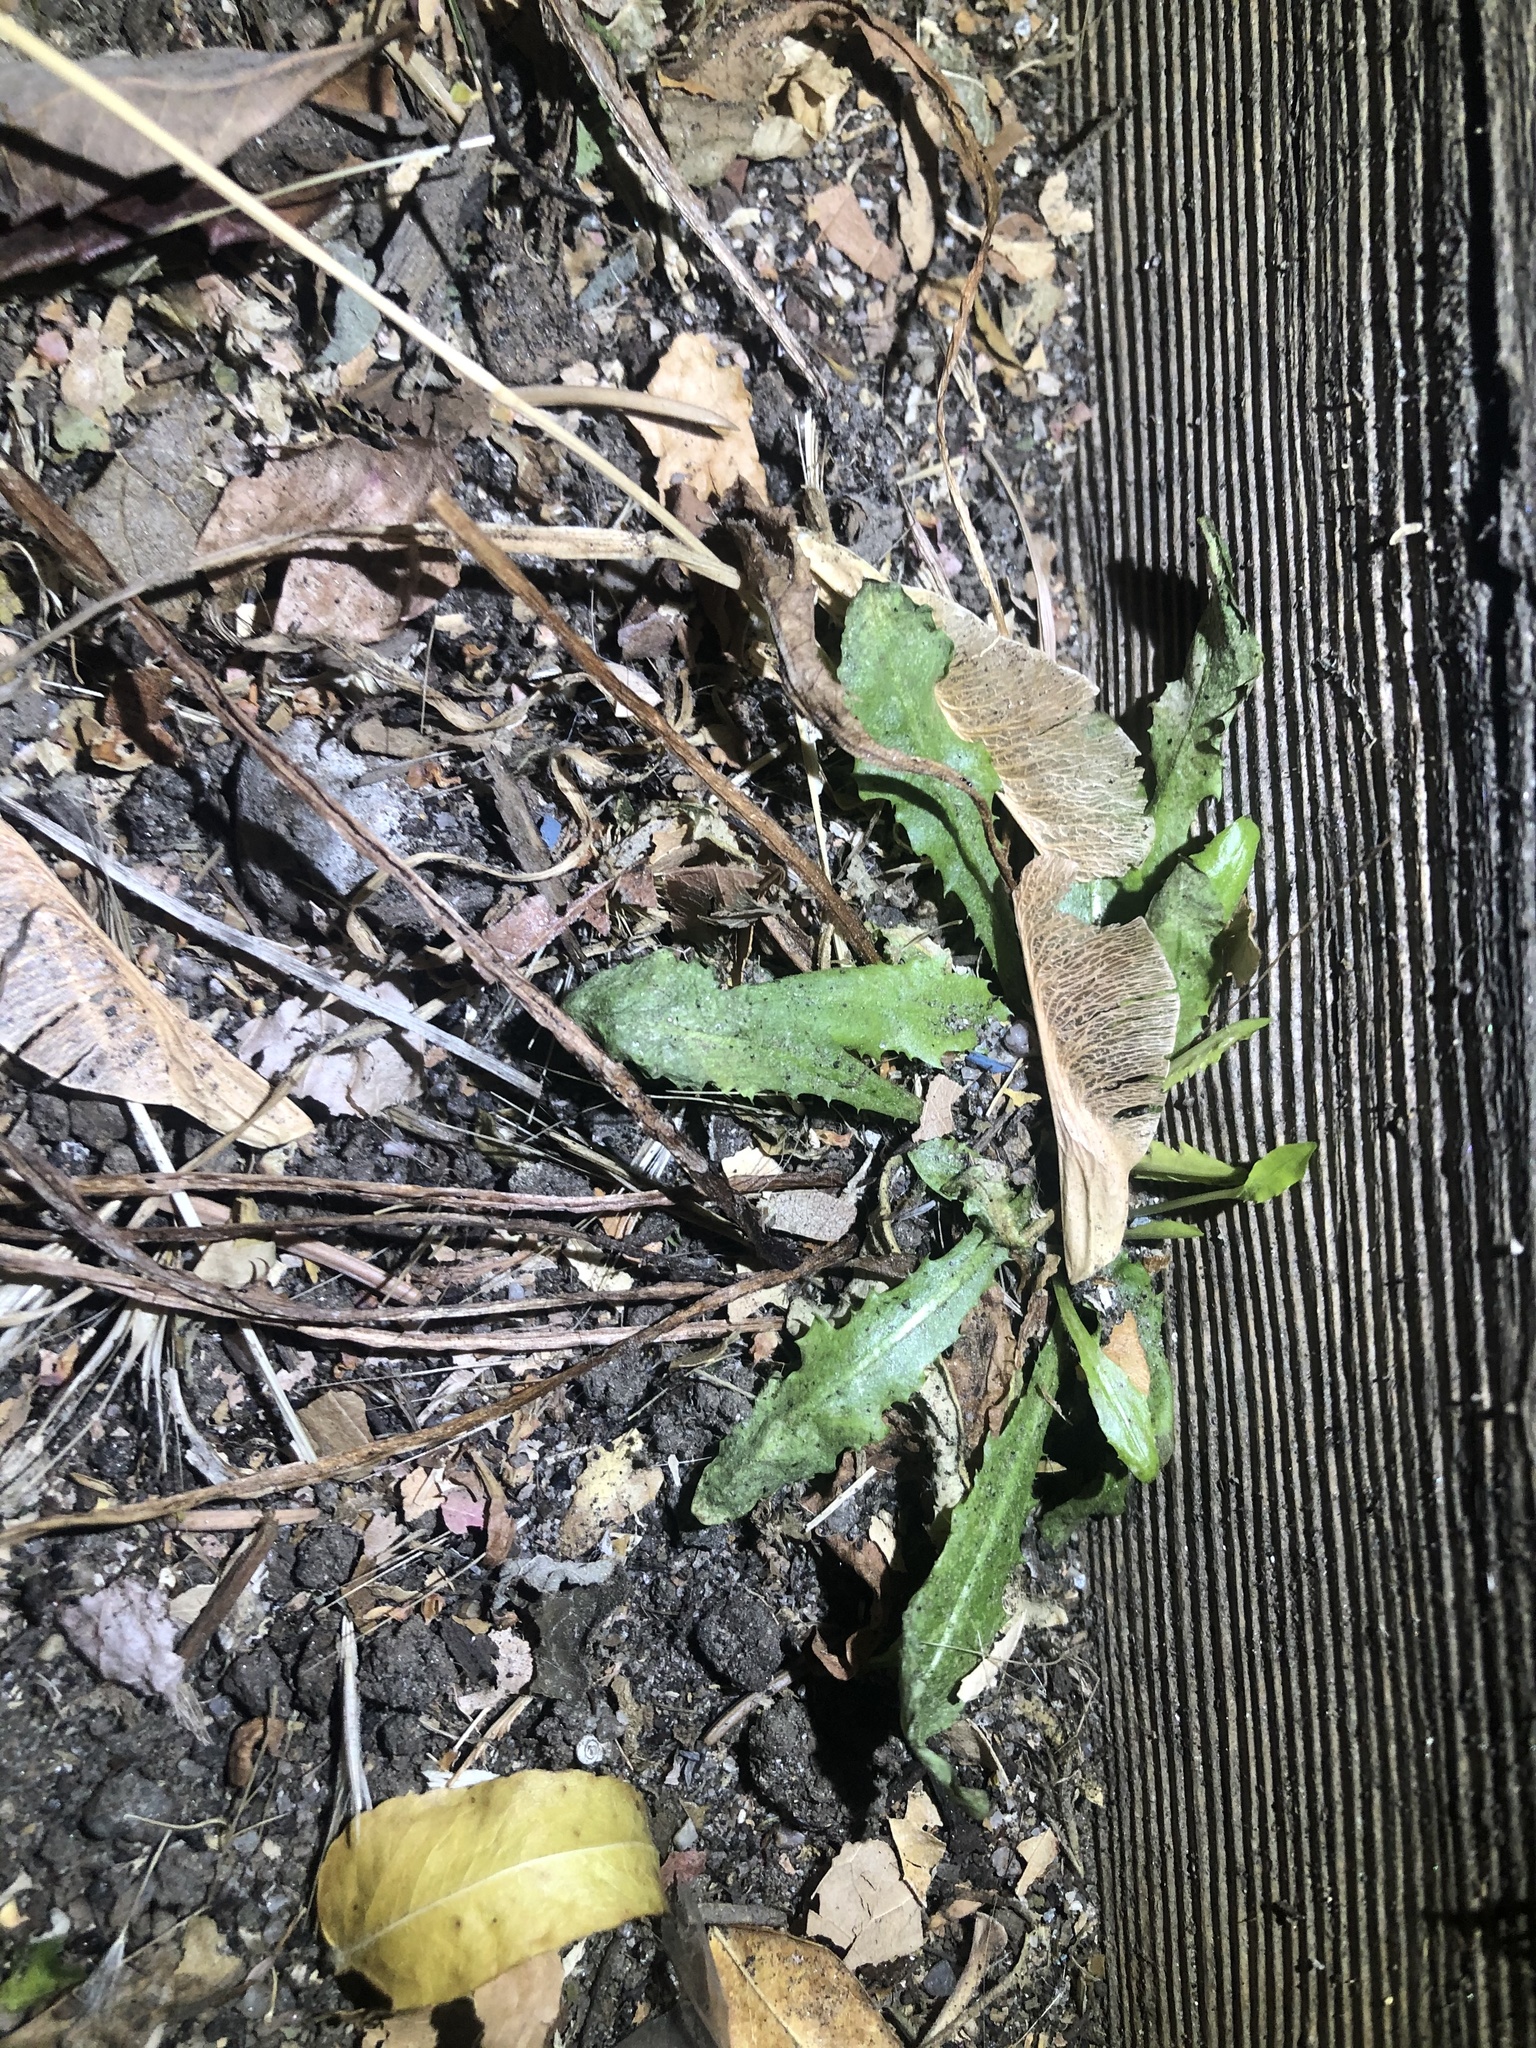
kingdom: Plantae
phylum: Tracheophyta
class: Magnoliopsida
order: Asterales
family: Asteraceae
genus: Taraxacum
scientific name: Taraxacum
